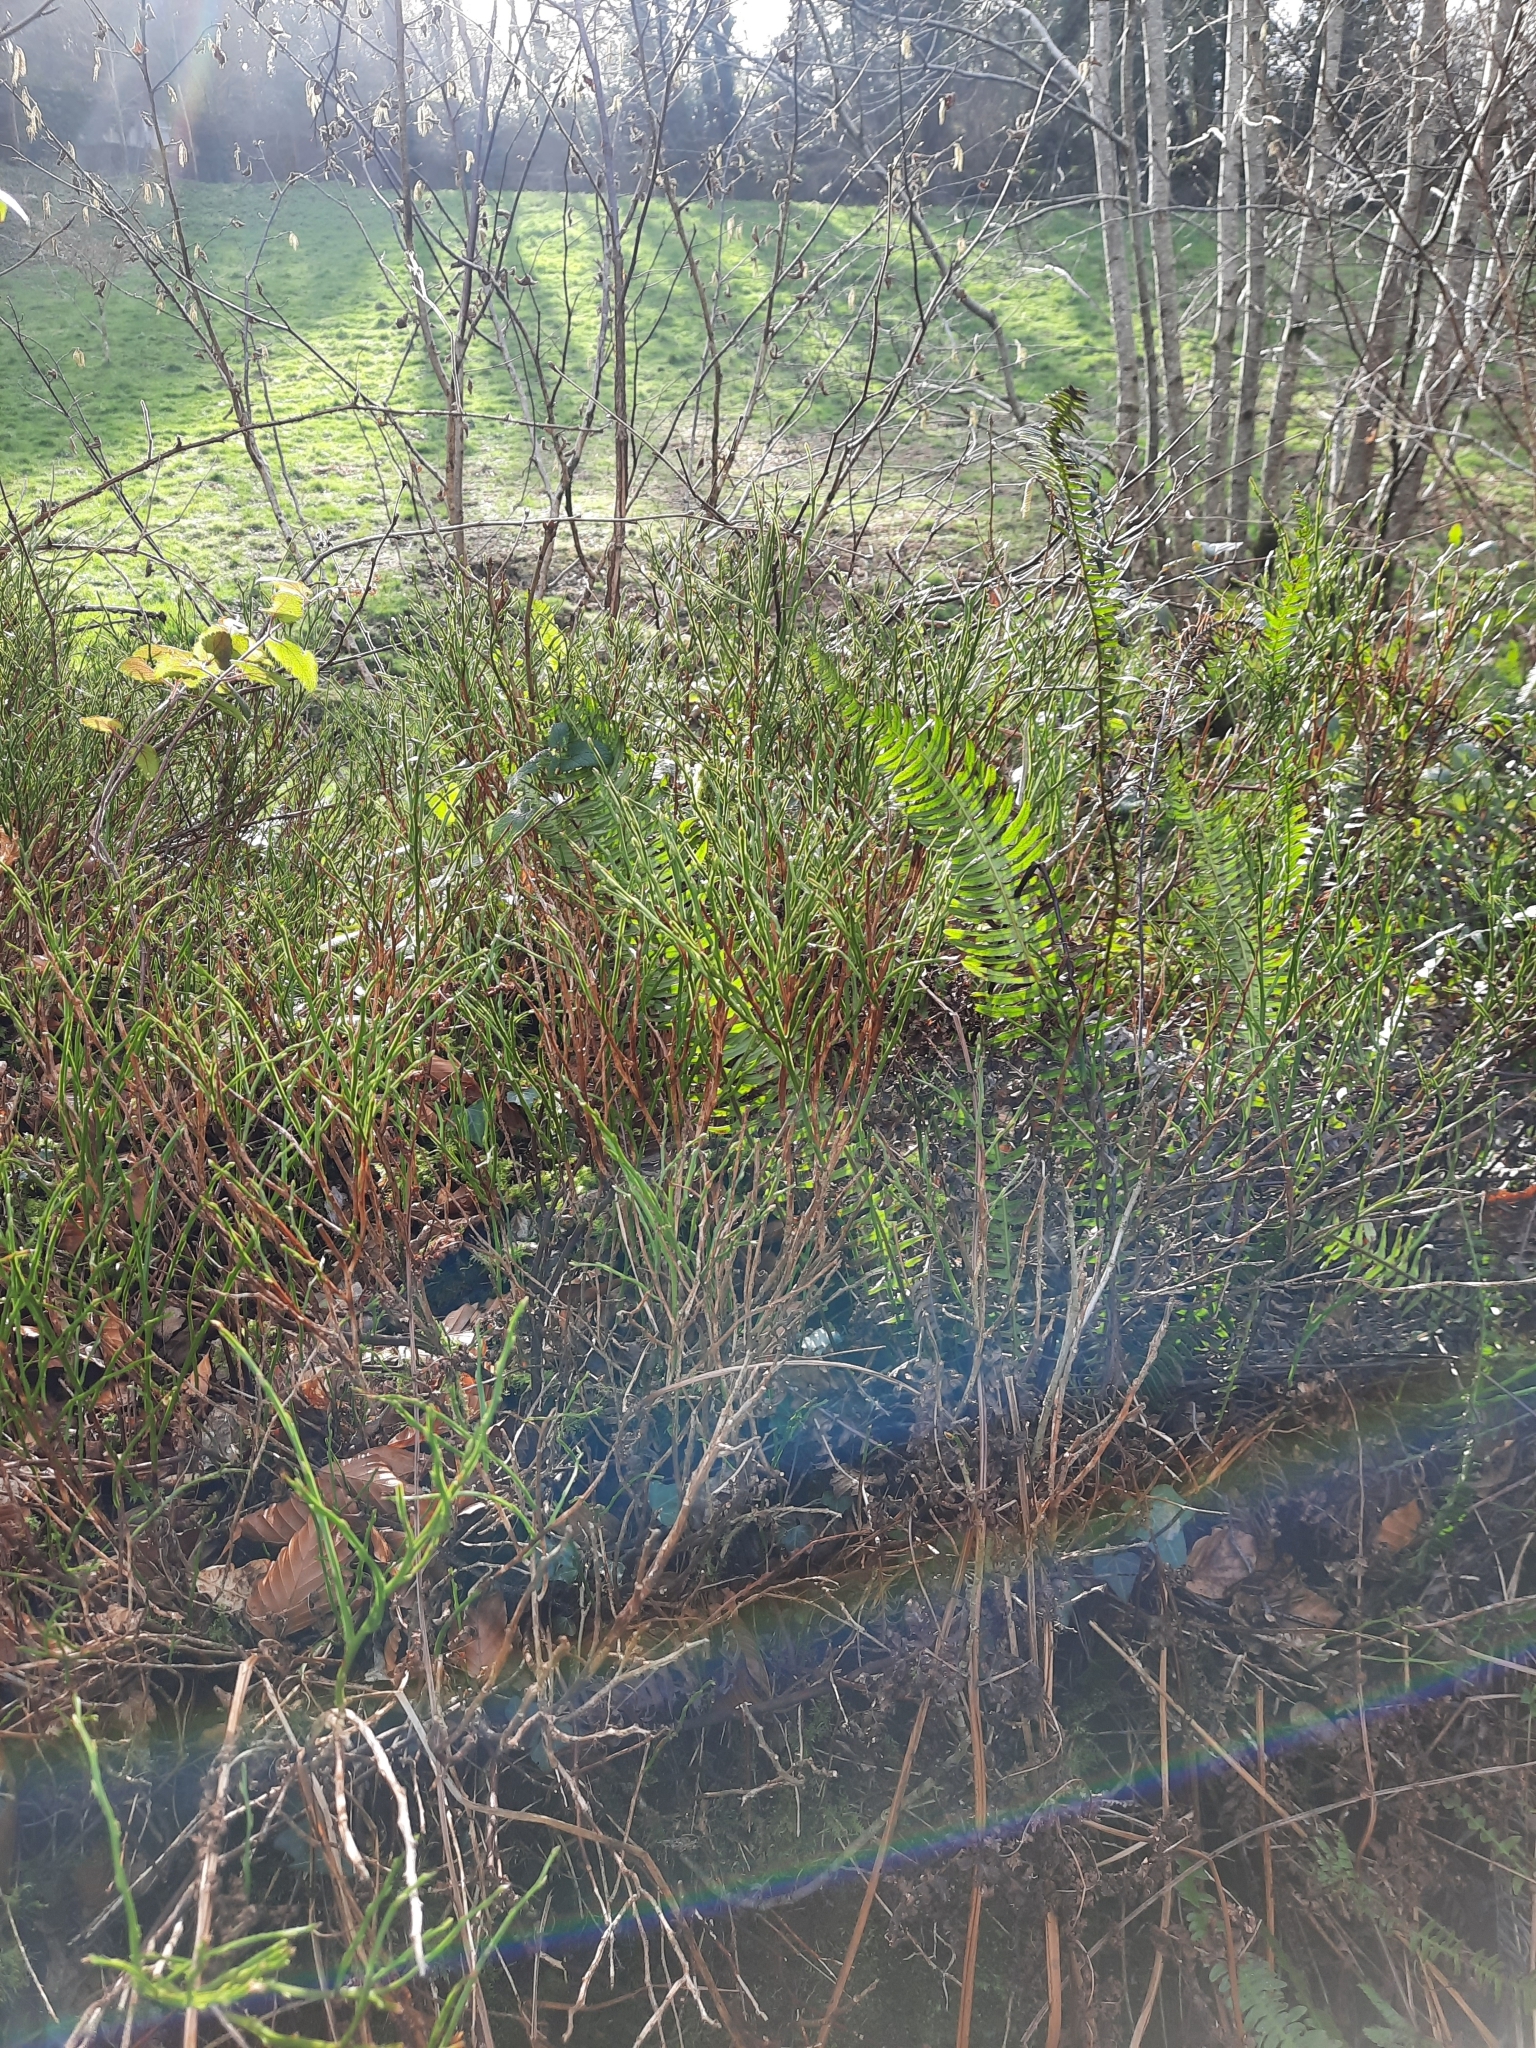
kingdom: Plantae
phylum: Tracheophyta
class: Magnoliopsida
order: Ericales
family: Ericaceae
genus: Vaccinium
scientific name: Vaccinium myrtillus
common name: Bilberry
